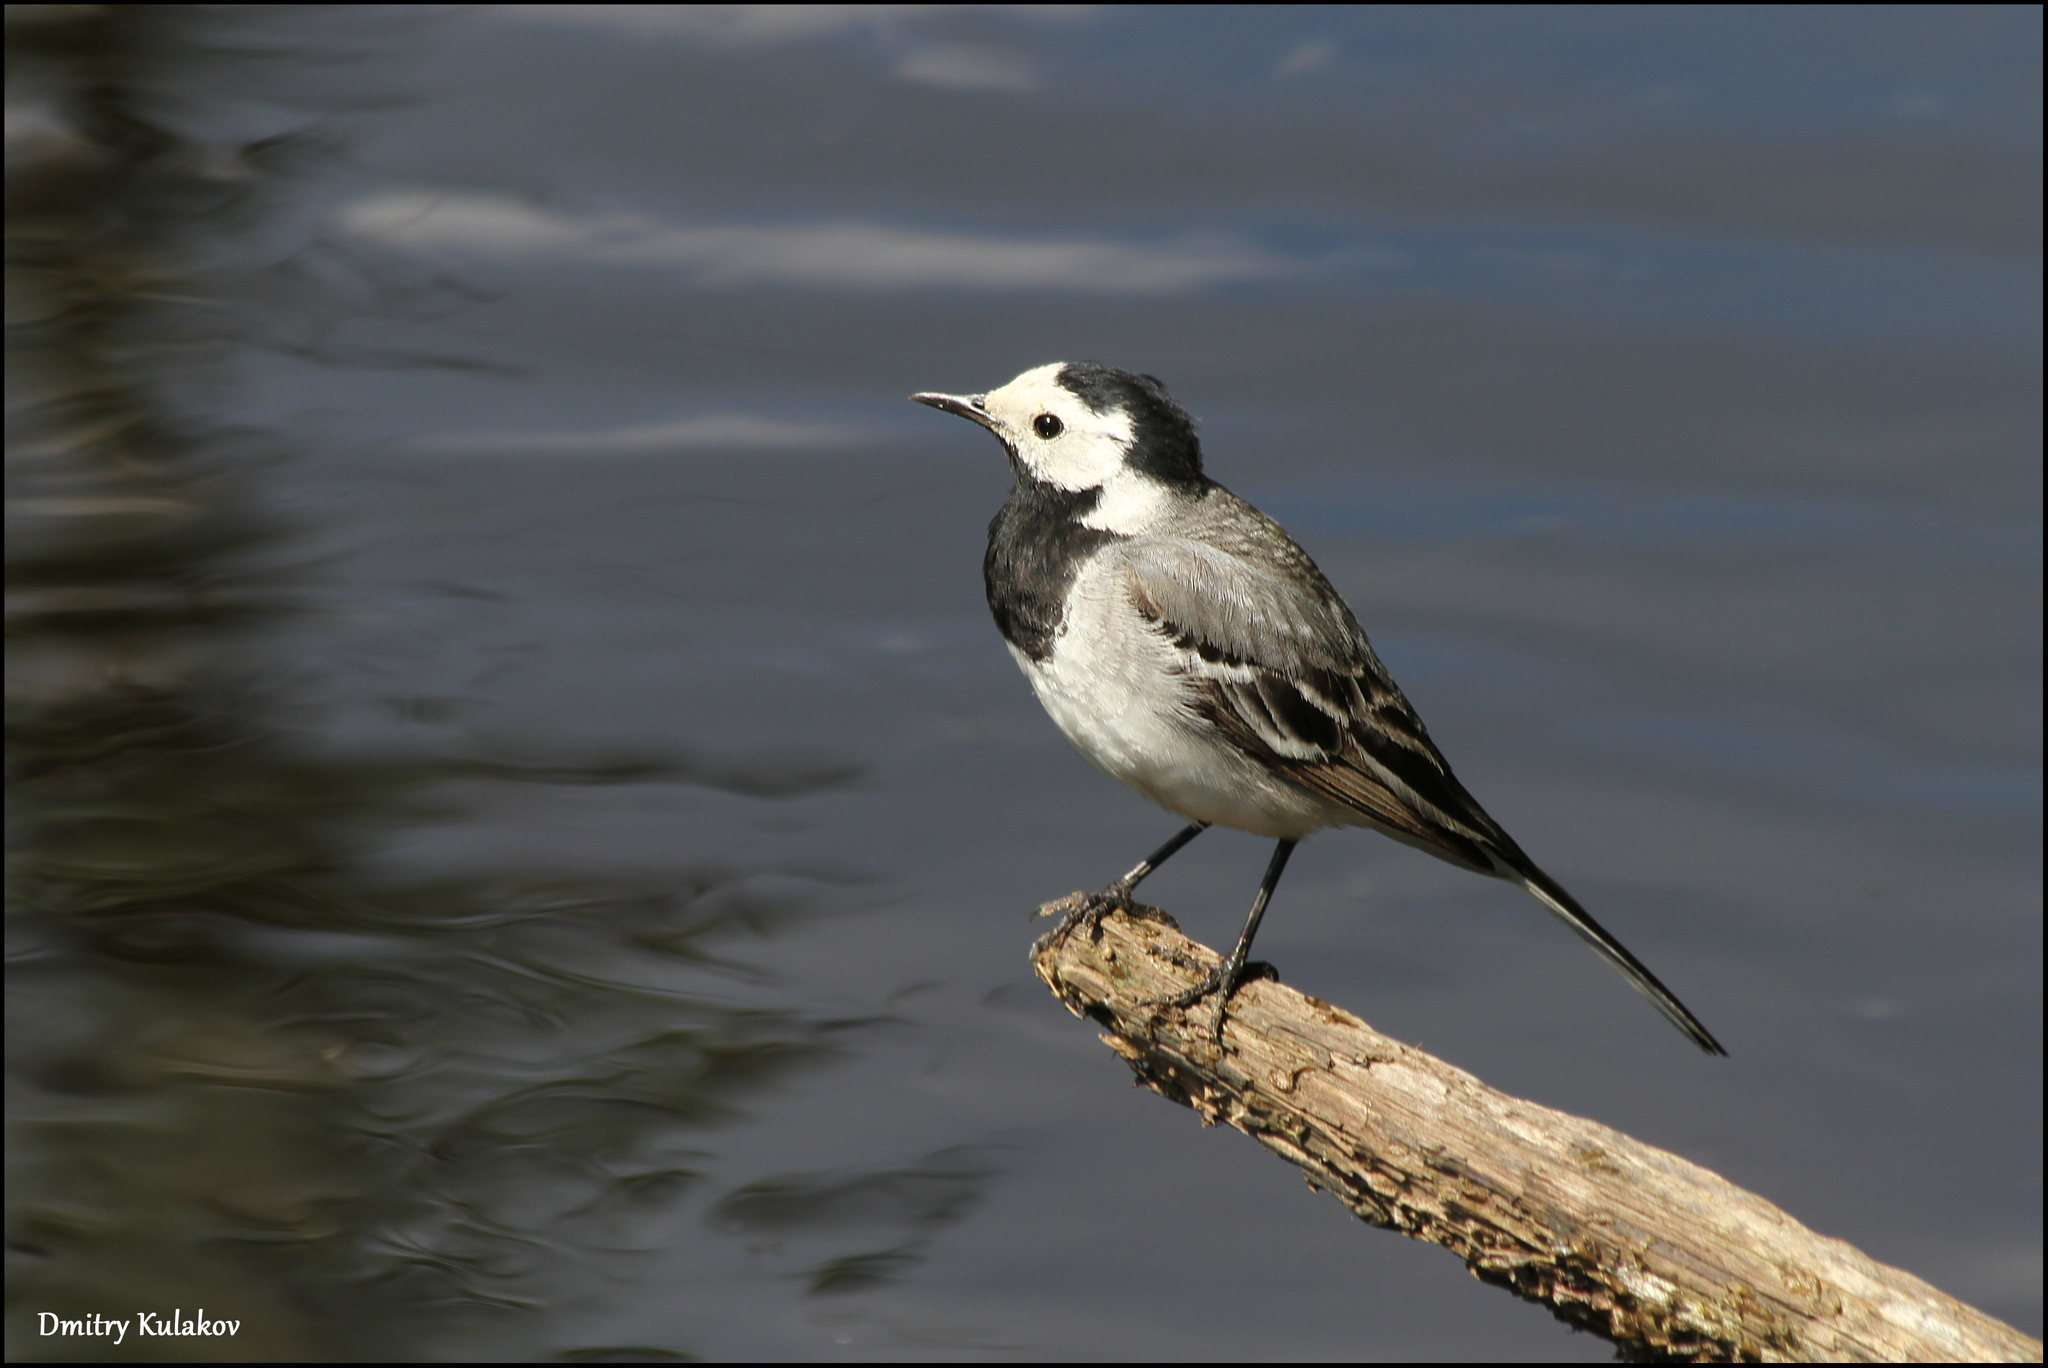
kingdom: Animalia
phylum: Chordata
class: Aves
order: Passeriformes
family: Motacillidae
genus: Motacilla
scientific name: Motacilla alba
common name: White wagtail
